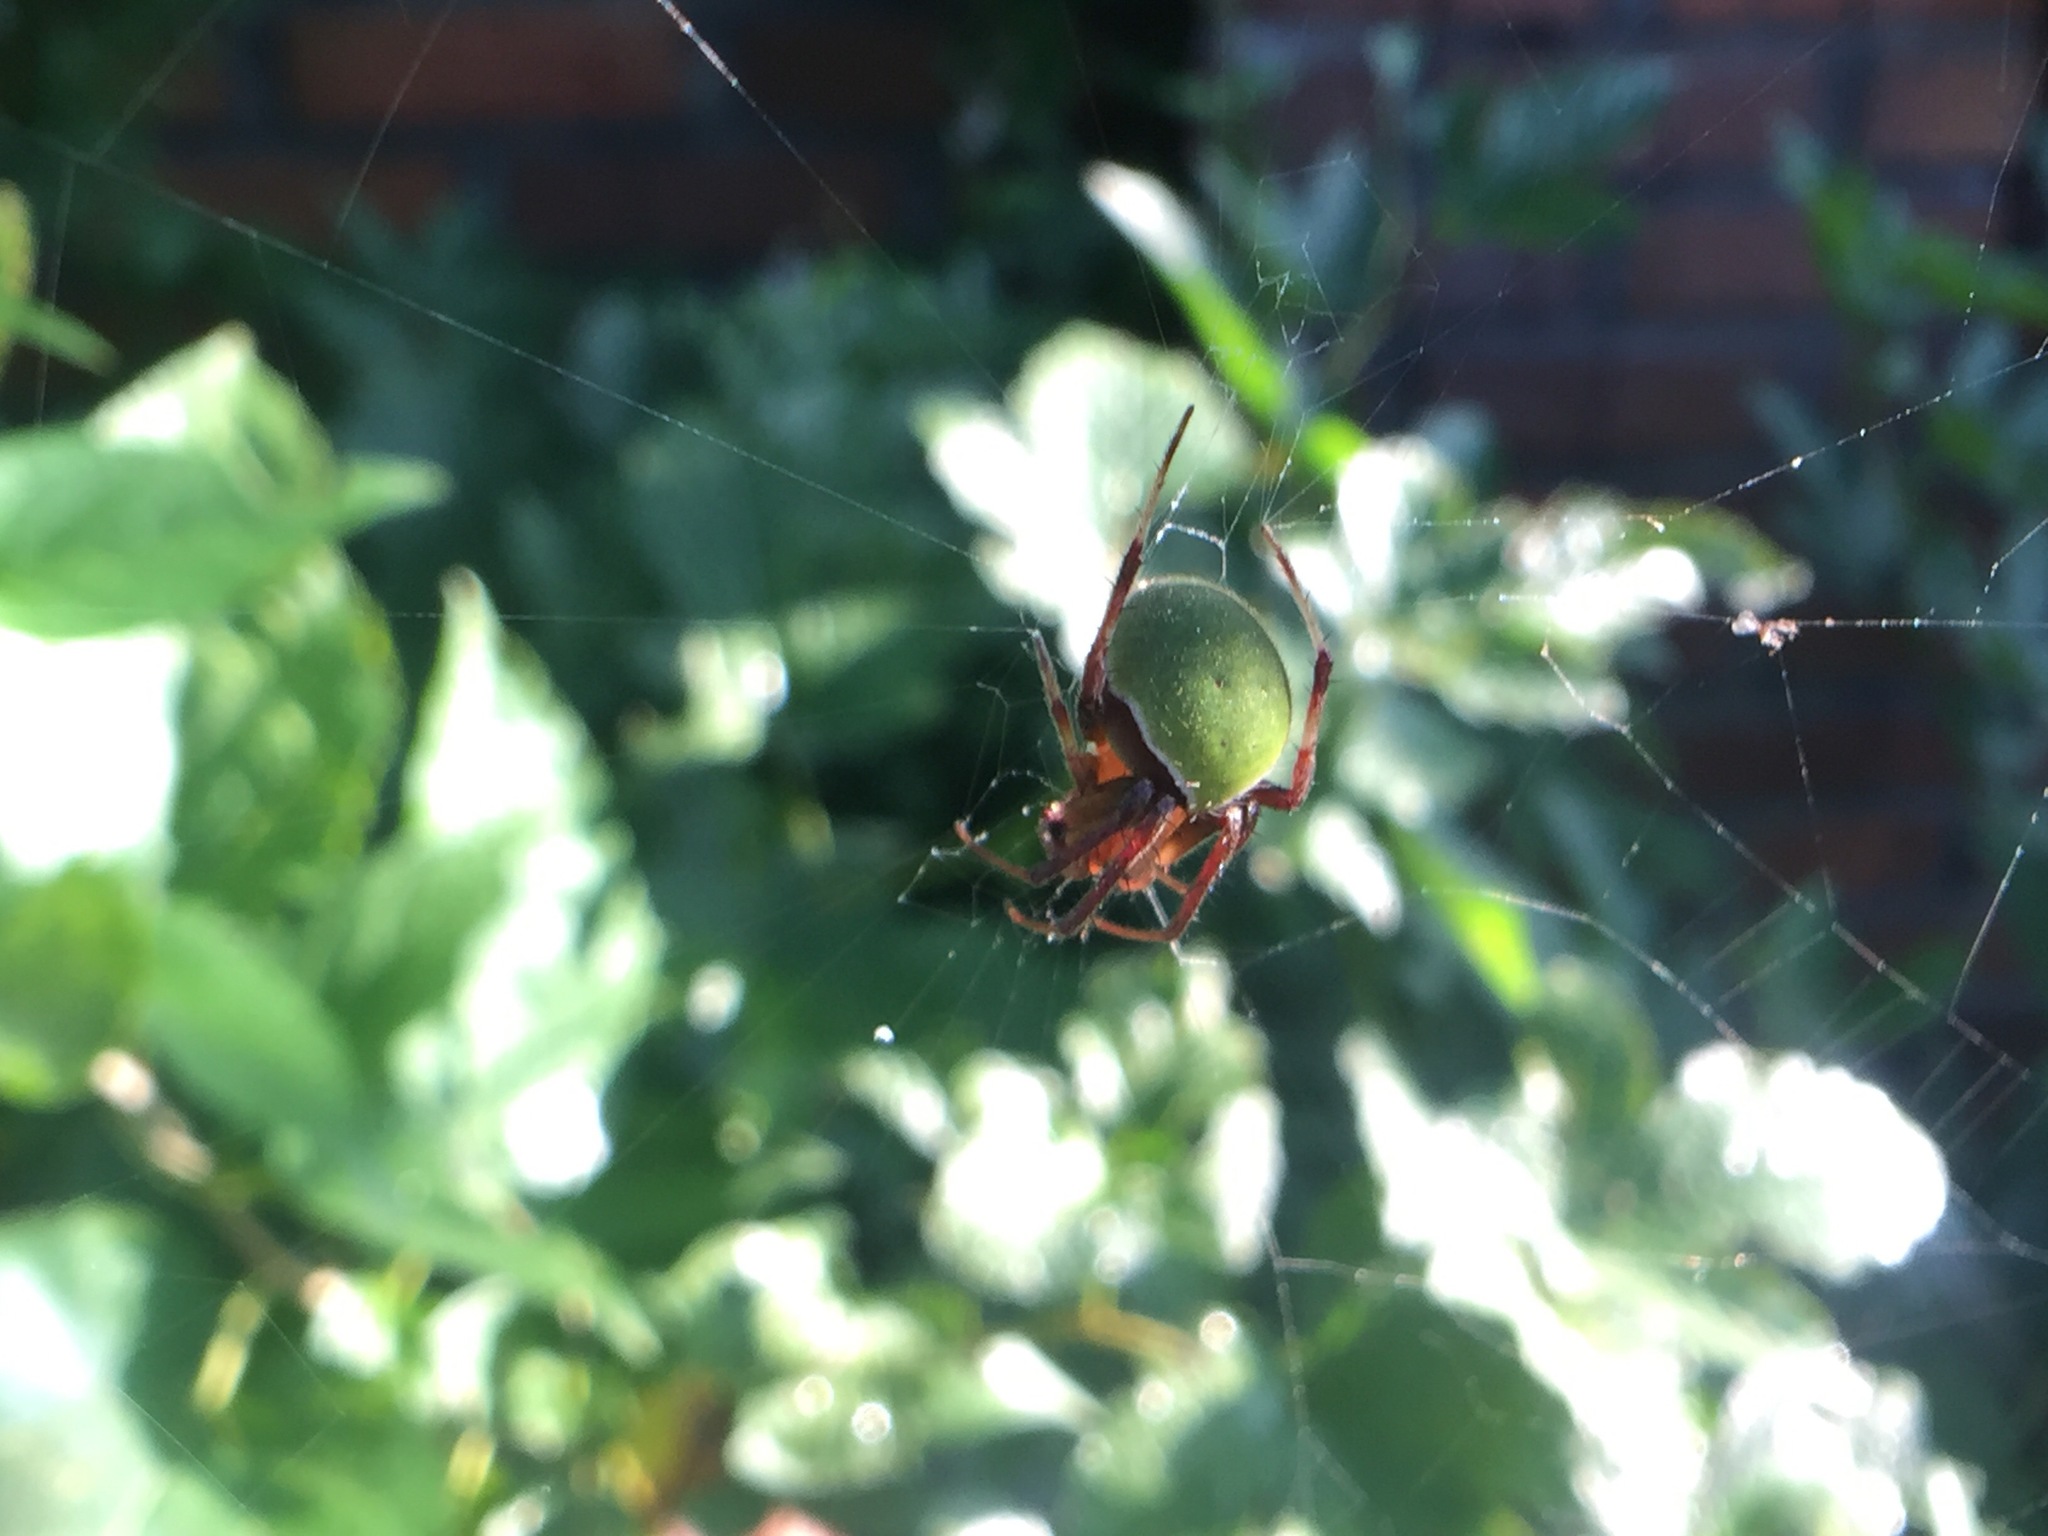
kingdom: Animalia
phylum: Arthropoda
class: Arachnida
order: Araneae
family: Araneidae
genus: Neoscona
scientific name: Neoscona mellotteei
